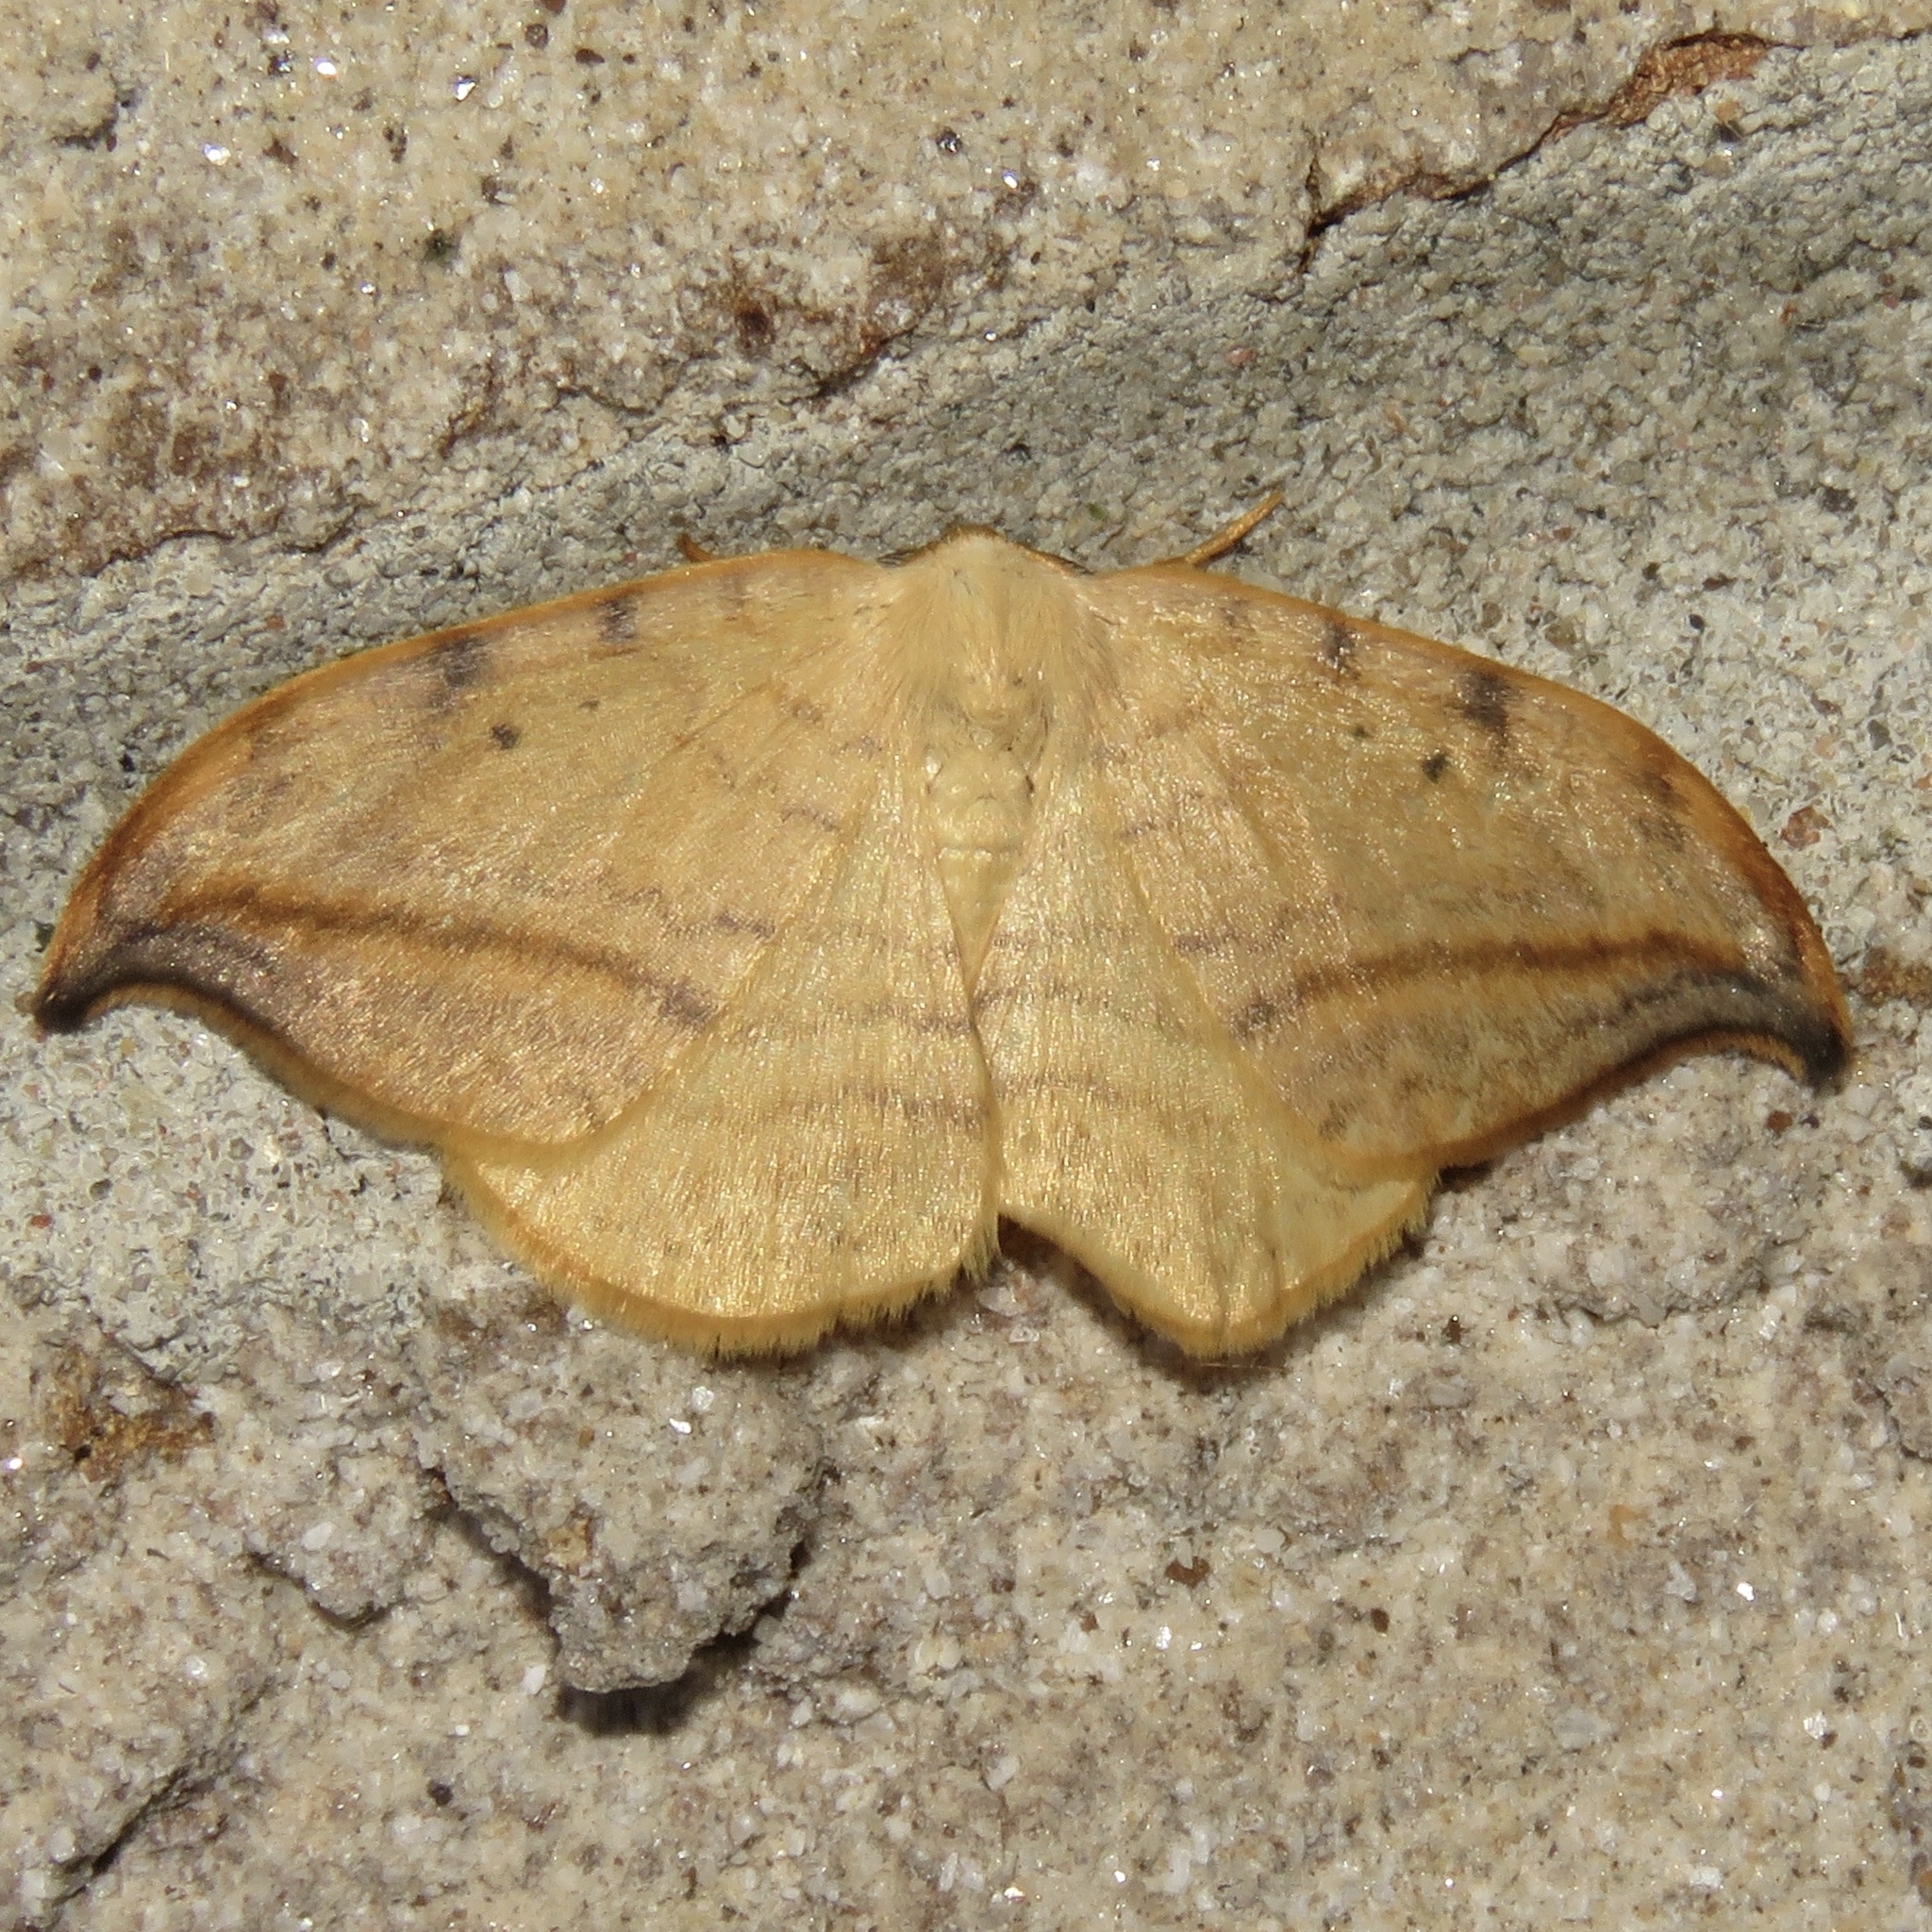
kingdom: Animalia
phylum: Arthropoda
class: Insecta
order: Lepidoptera
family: Drepanidae
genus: Drepana
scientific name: Drepana arcuata
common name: Arched hooktip moth
